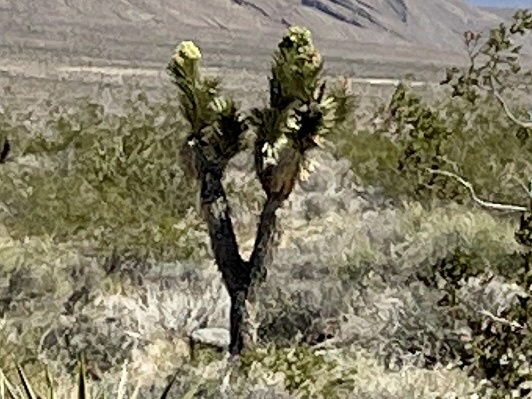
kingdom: Plantae
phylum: Tracheophyta
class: Liliopsida
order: Asparagales
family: Asparagaceae
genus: Yucca
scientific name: Yucca brevifolia
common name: Joshua tree
